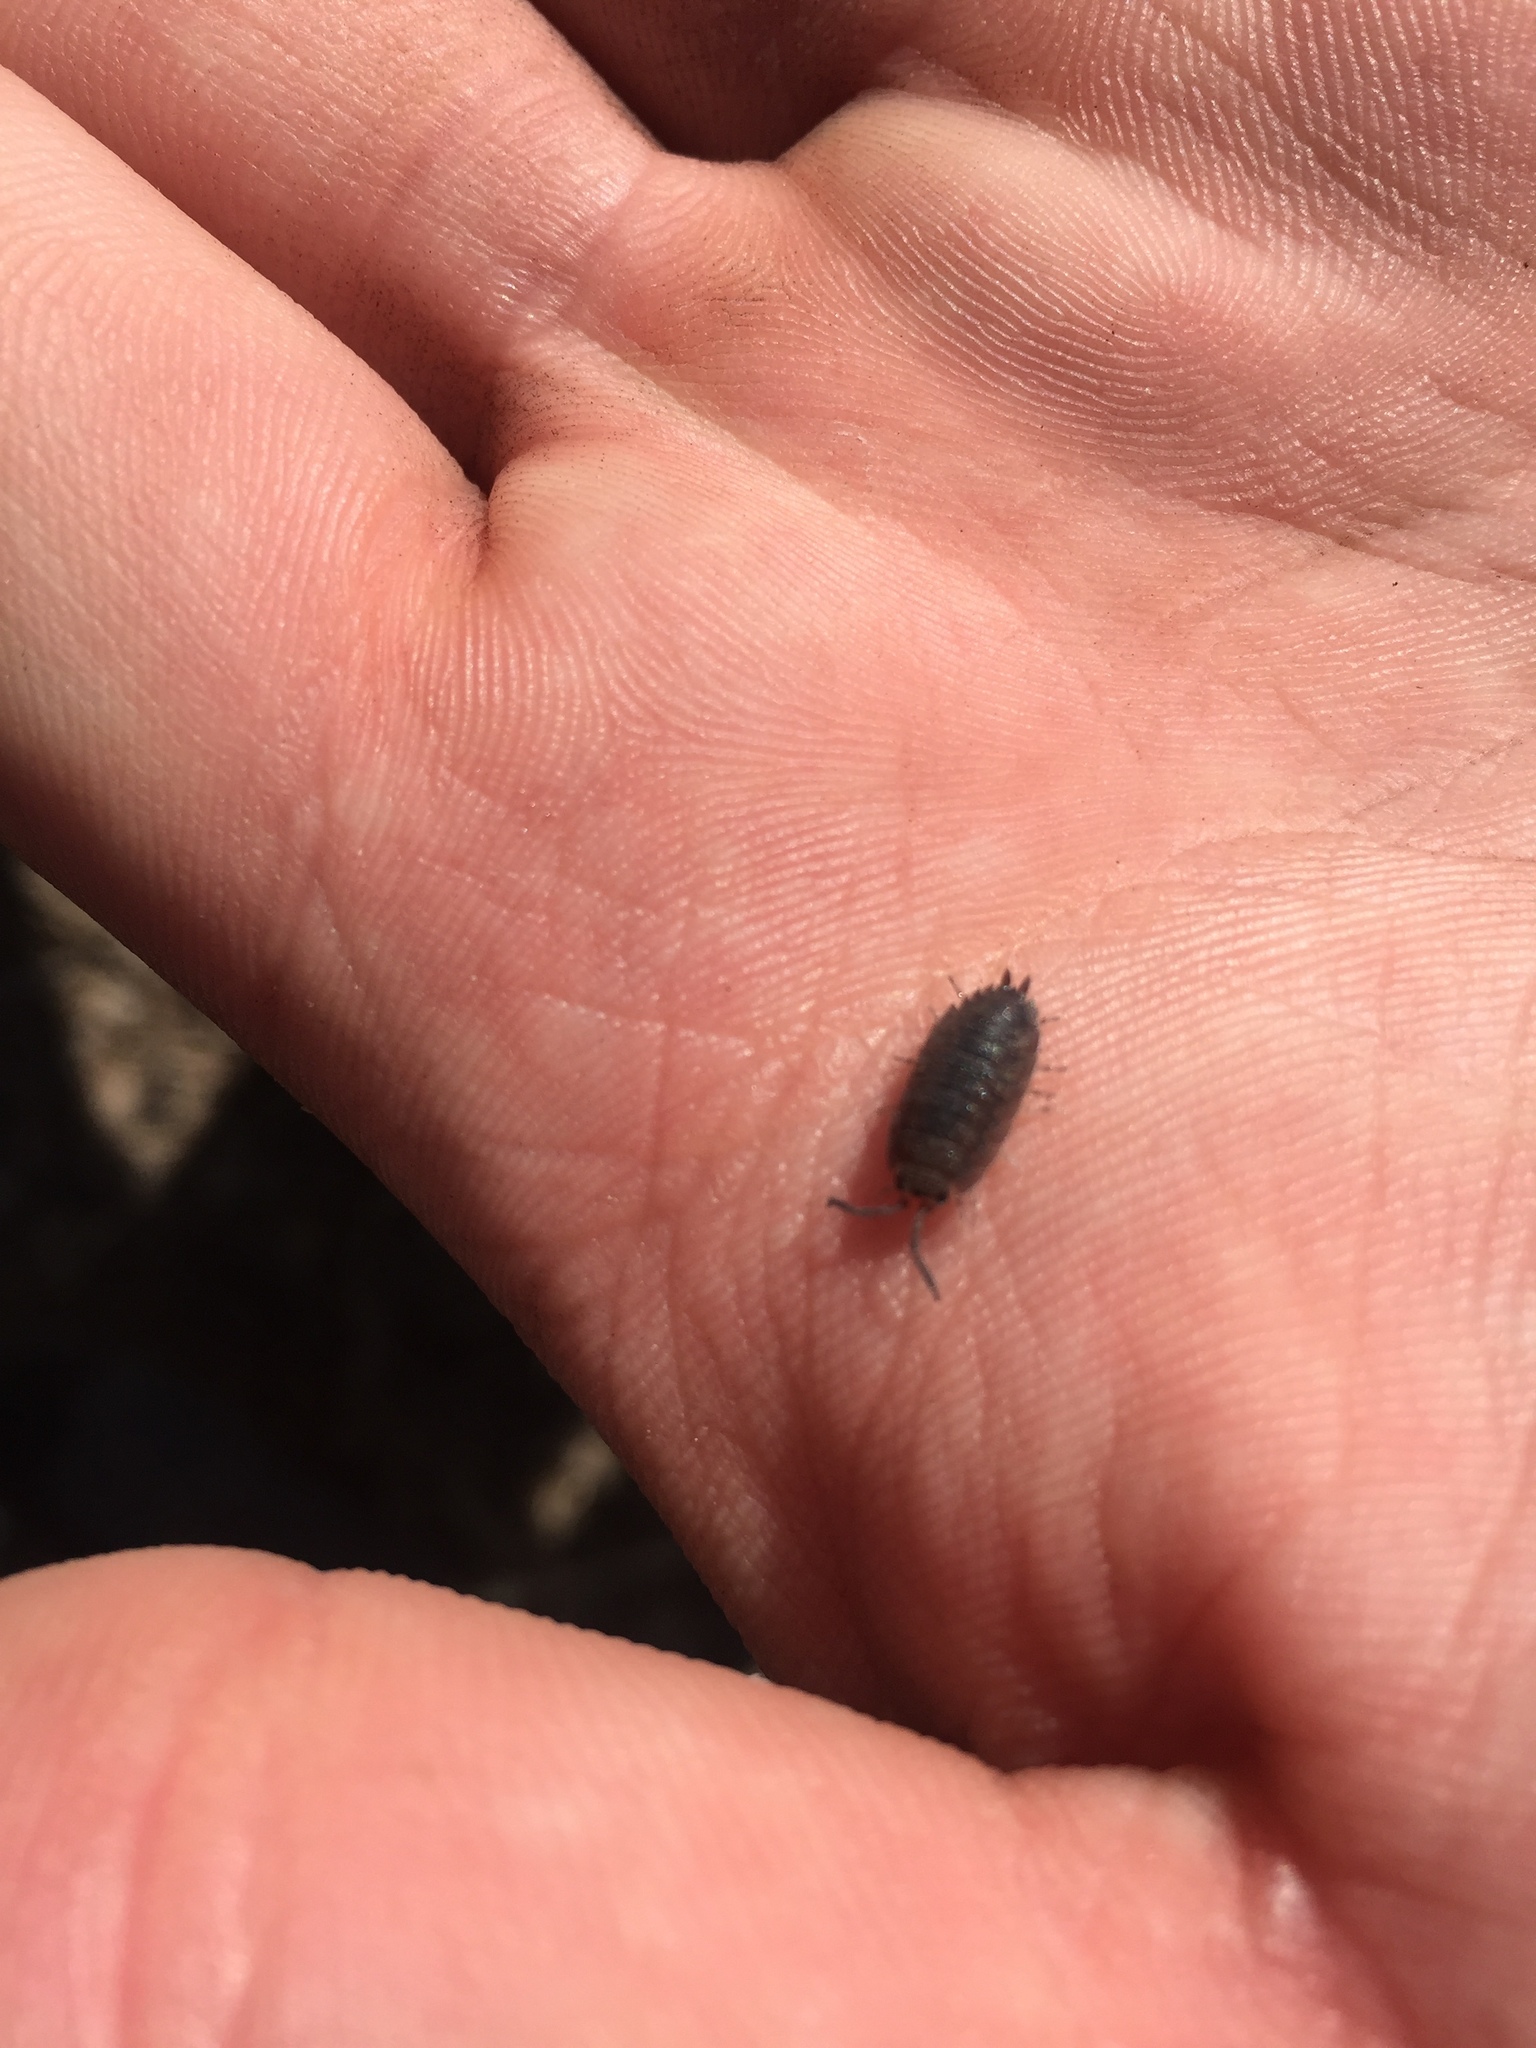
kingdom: Animalia
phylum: Arthropoda
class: Malacostraca
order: Isopoda
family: Porcellionidae
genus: Porcellio
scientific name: Porcellio scaber
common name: Common rough woodlouse
